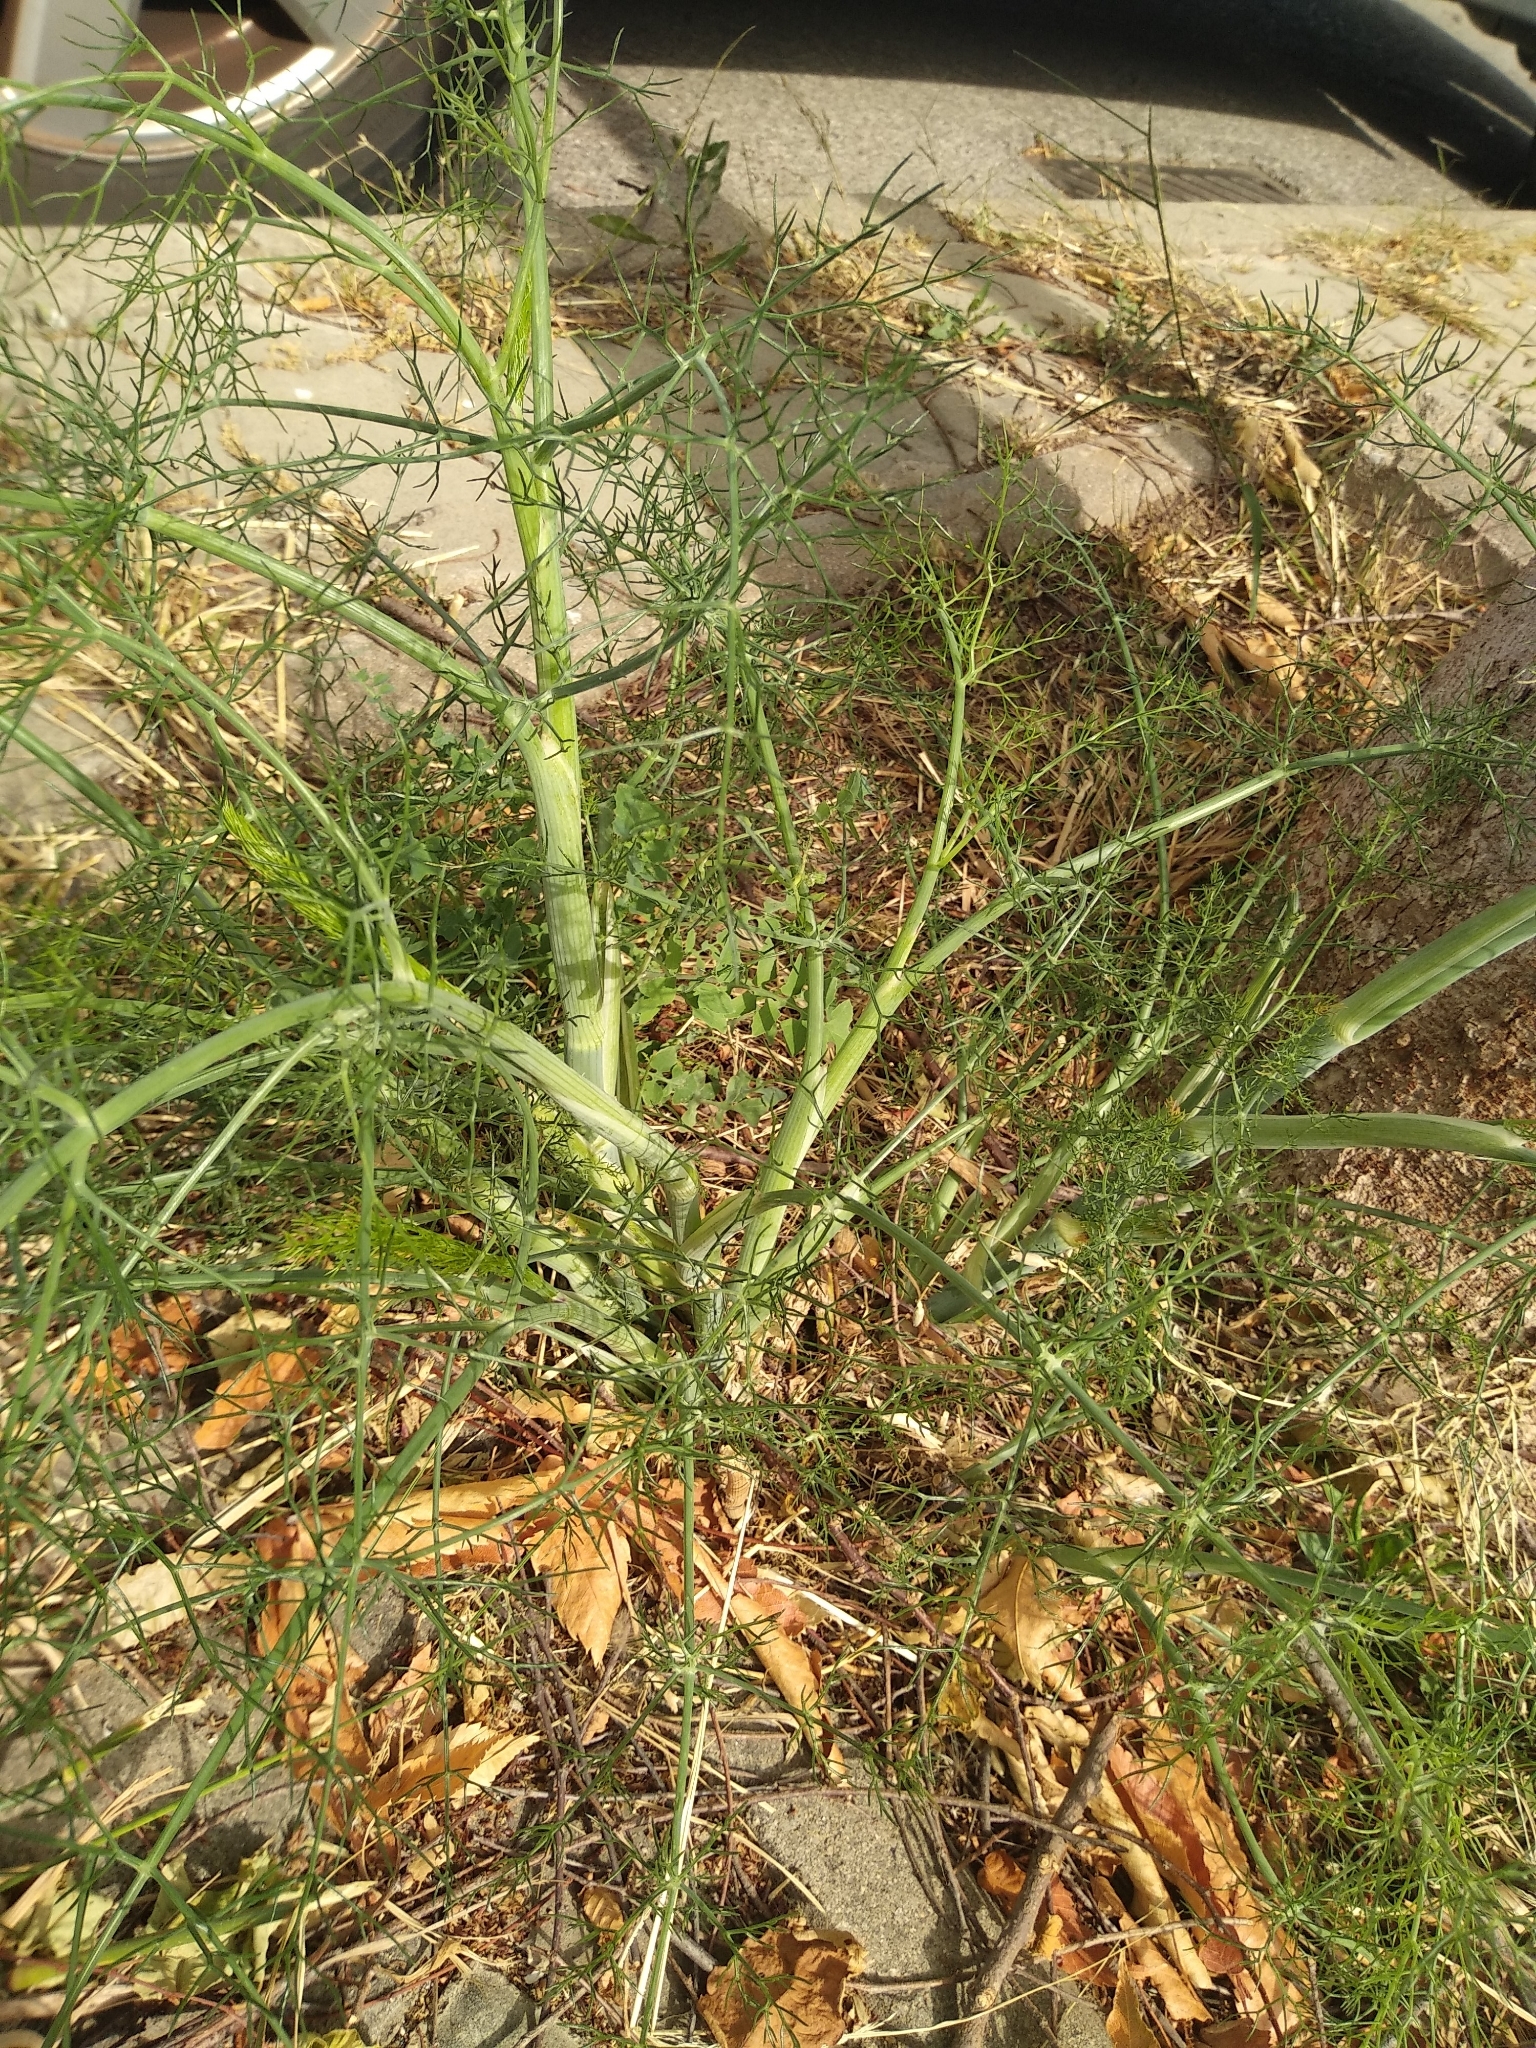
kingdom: Plantae
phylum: Tracheophyta
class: Magnoliopsida
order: Apiales
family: Apiaceae
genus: Foeniculum
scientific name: Foeniculum vulgare
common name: Fennel
